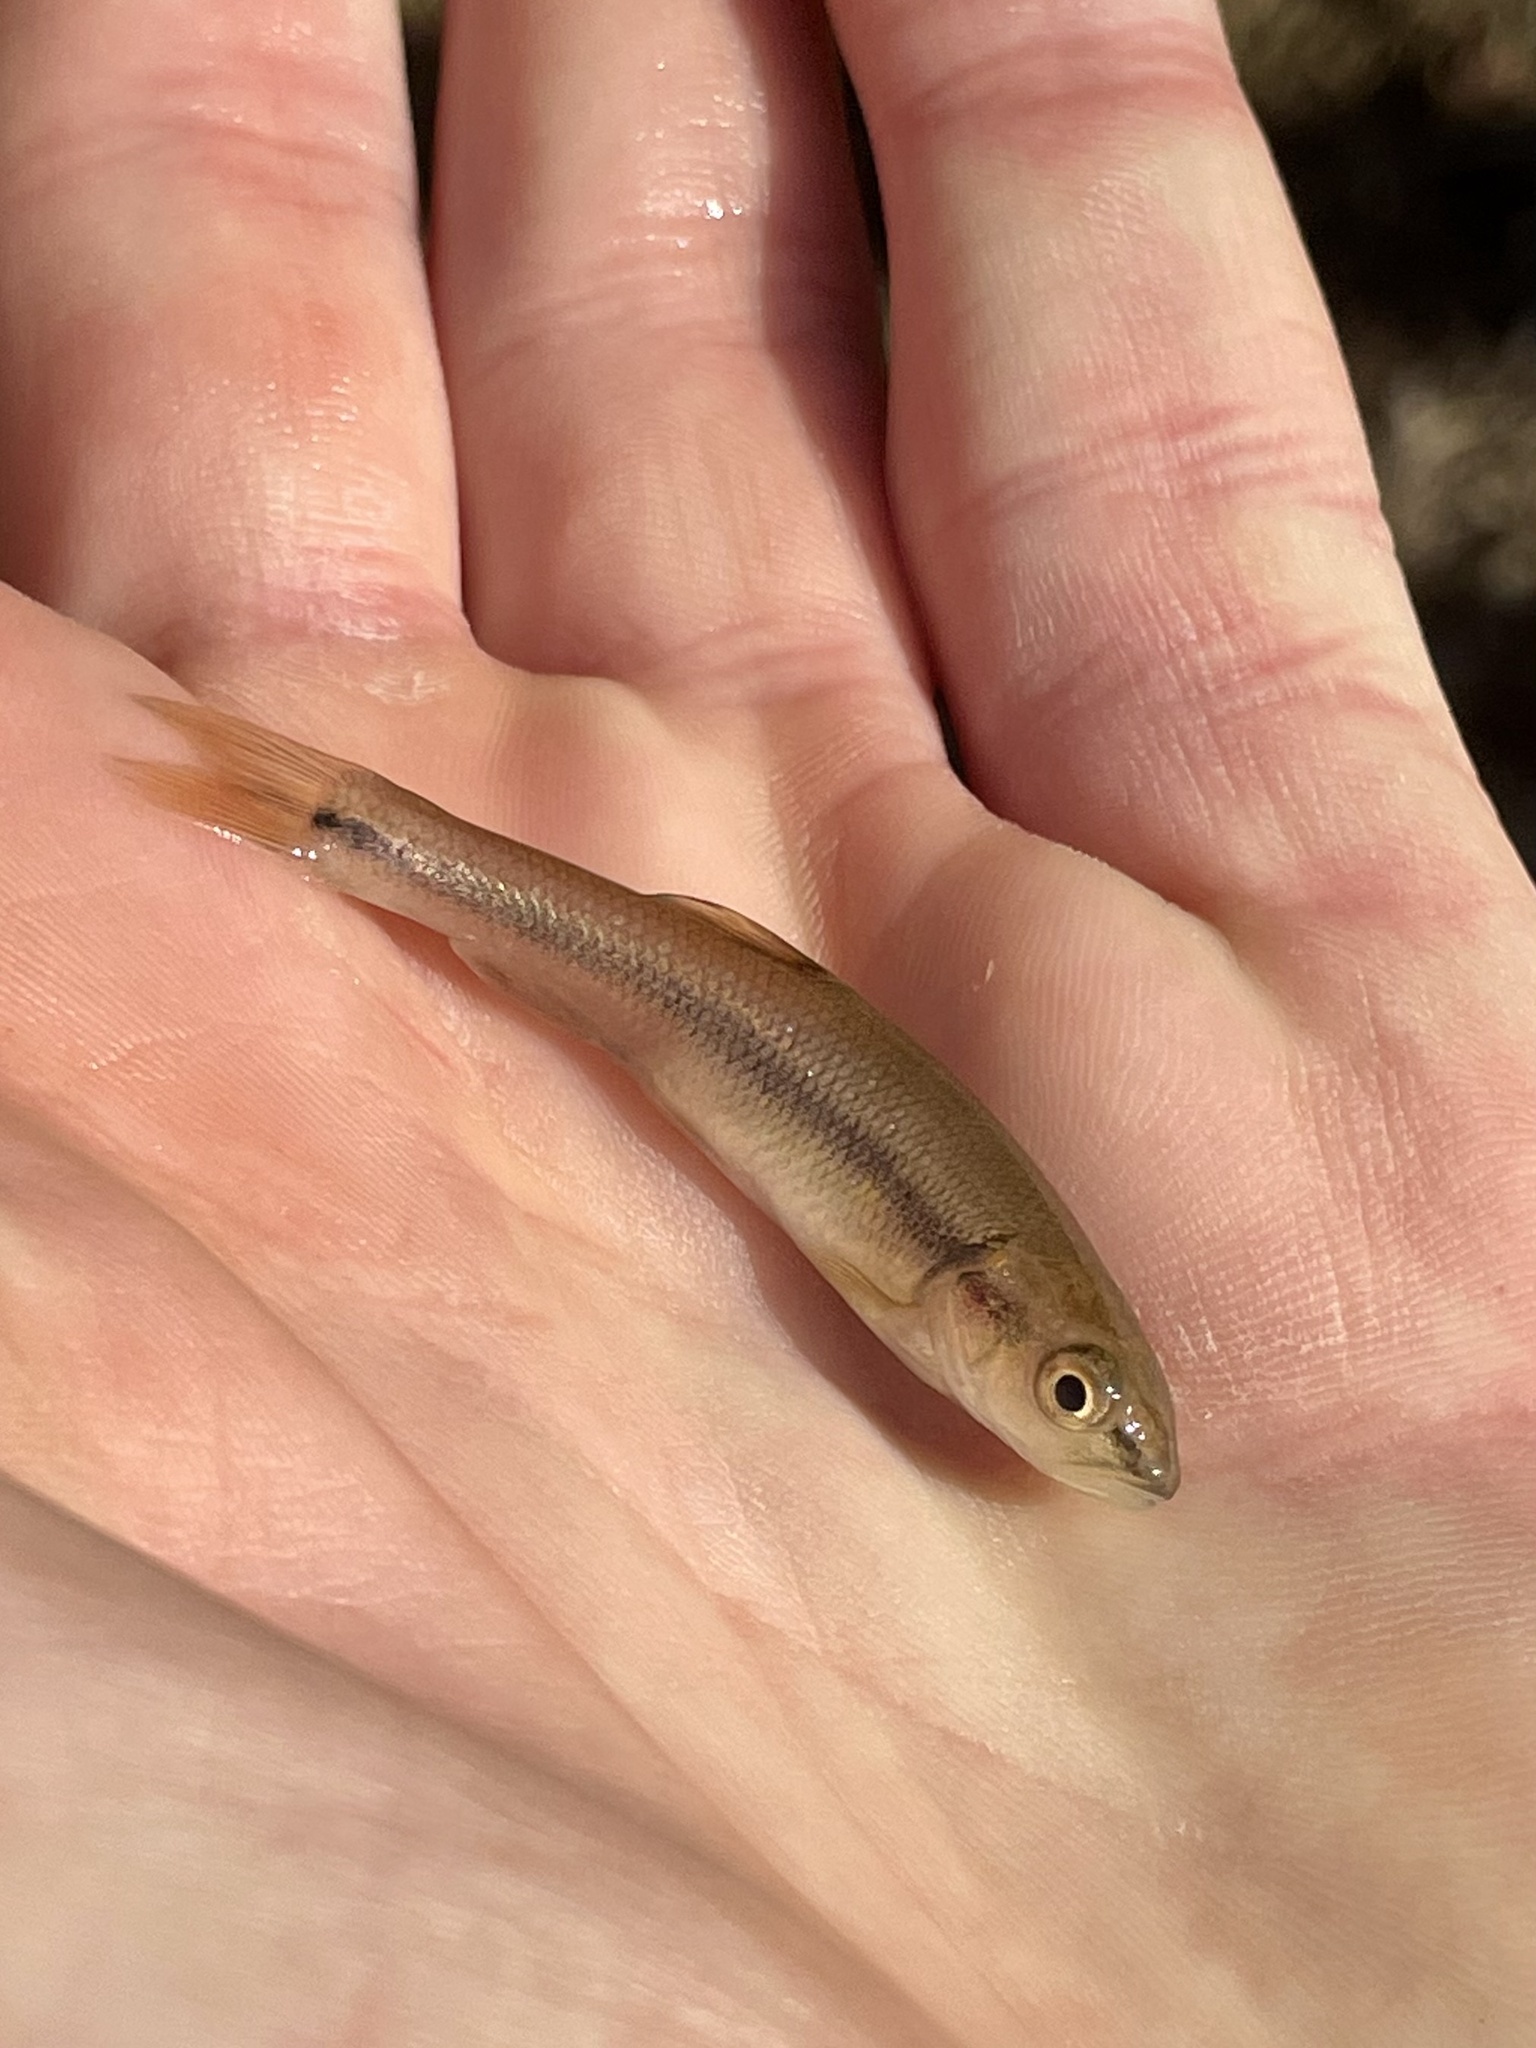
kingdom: Animalia
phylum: Chordata
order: Cypriniformes
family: Cyprinidae
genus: Semotilus
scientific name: Semotilus atromaculatus
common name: Creek chub
